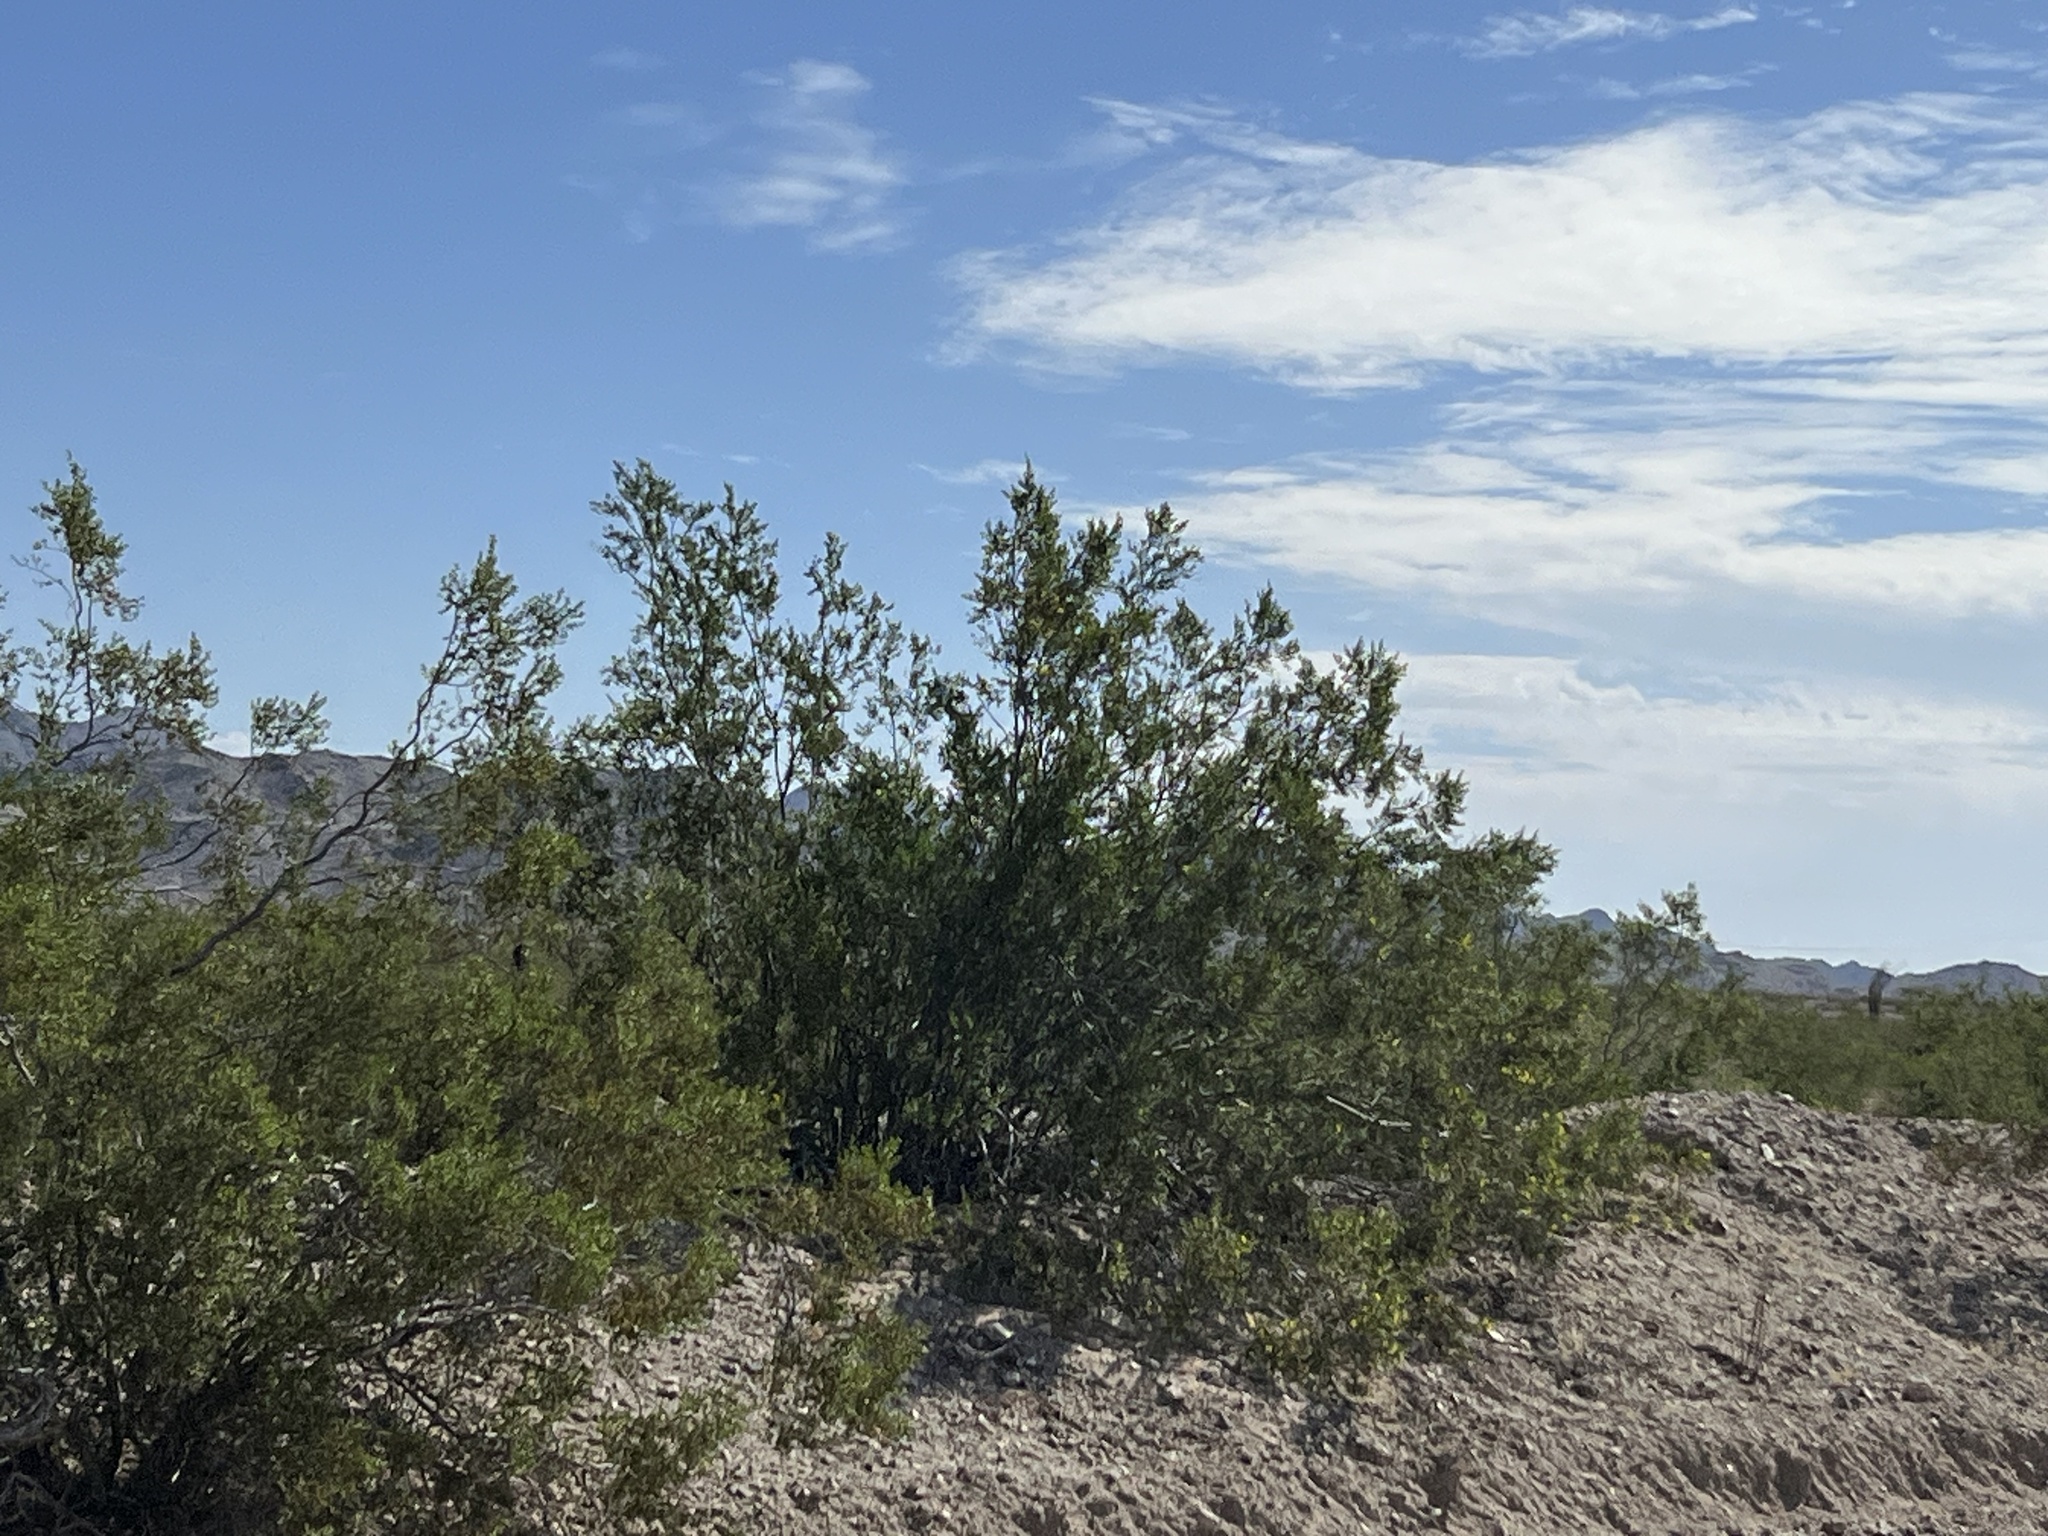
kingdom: Plantae
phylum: Tracheophyta
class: Magnoliopsida
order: Zygophyllales
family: Zygophyllaceae
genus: Larrea
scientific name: Larrea tridentata
